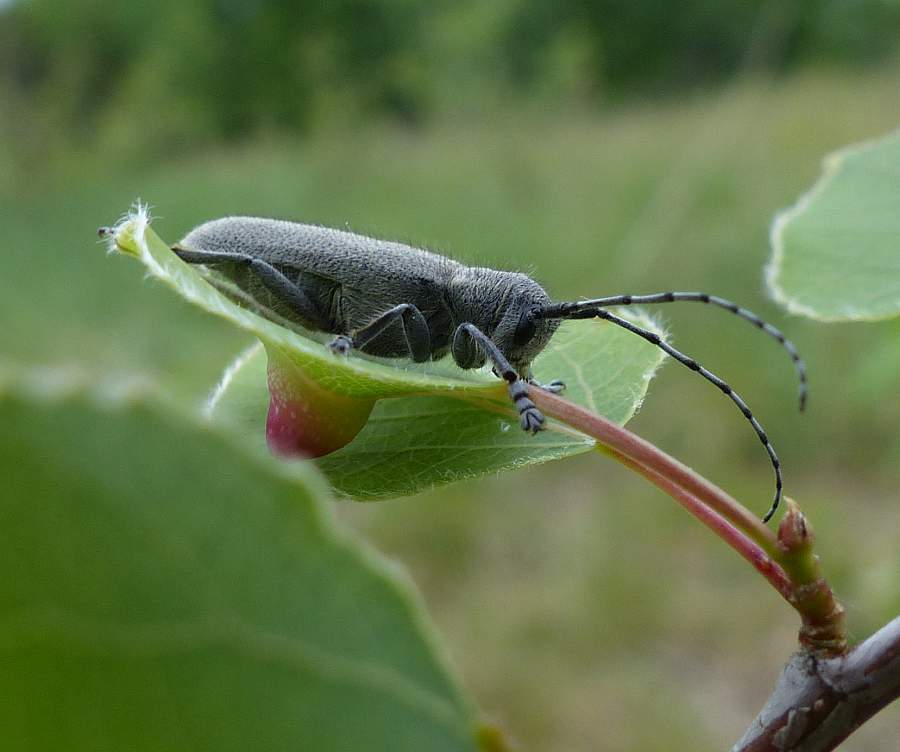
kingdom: Animalia
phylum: Arthropoda
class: Insecta
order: Coleoptera
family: Cerambycidae
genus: Saperda
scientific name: Saperda inornata
